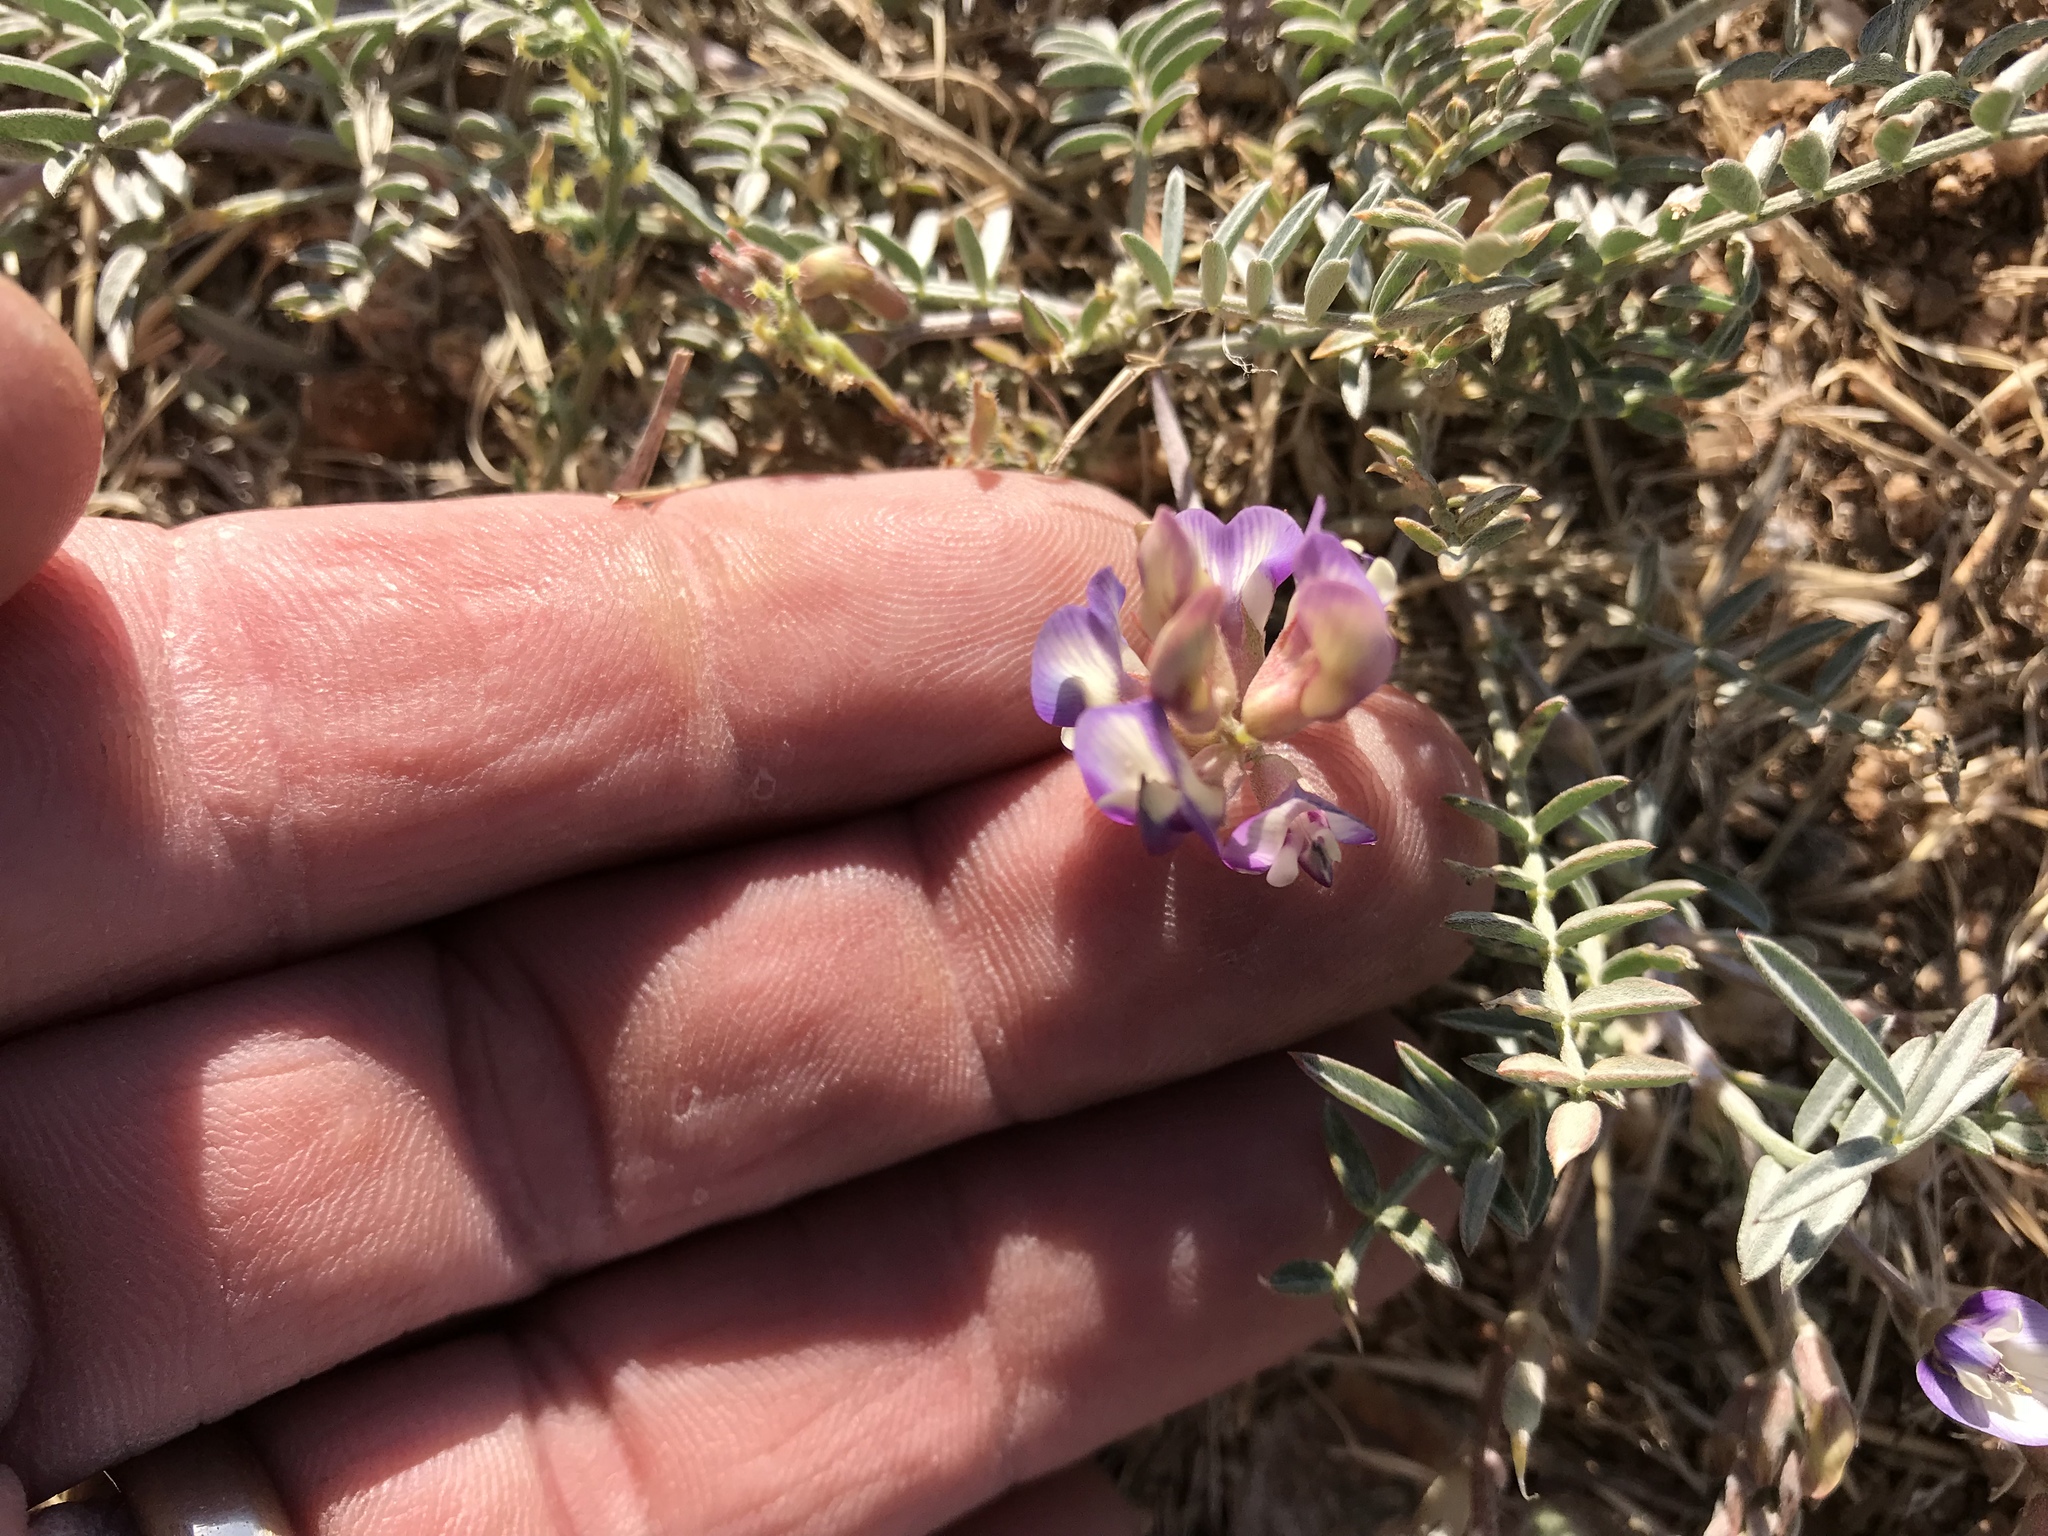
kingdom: Plantae
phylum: Tracheophyta
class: Magnoliopsida
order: Fabales
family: Fabaceae
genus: Astragalus
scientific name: Astragalus nuttallianus
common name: Smallflowered milkvetch
